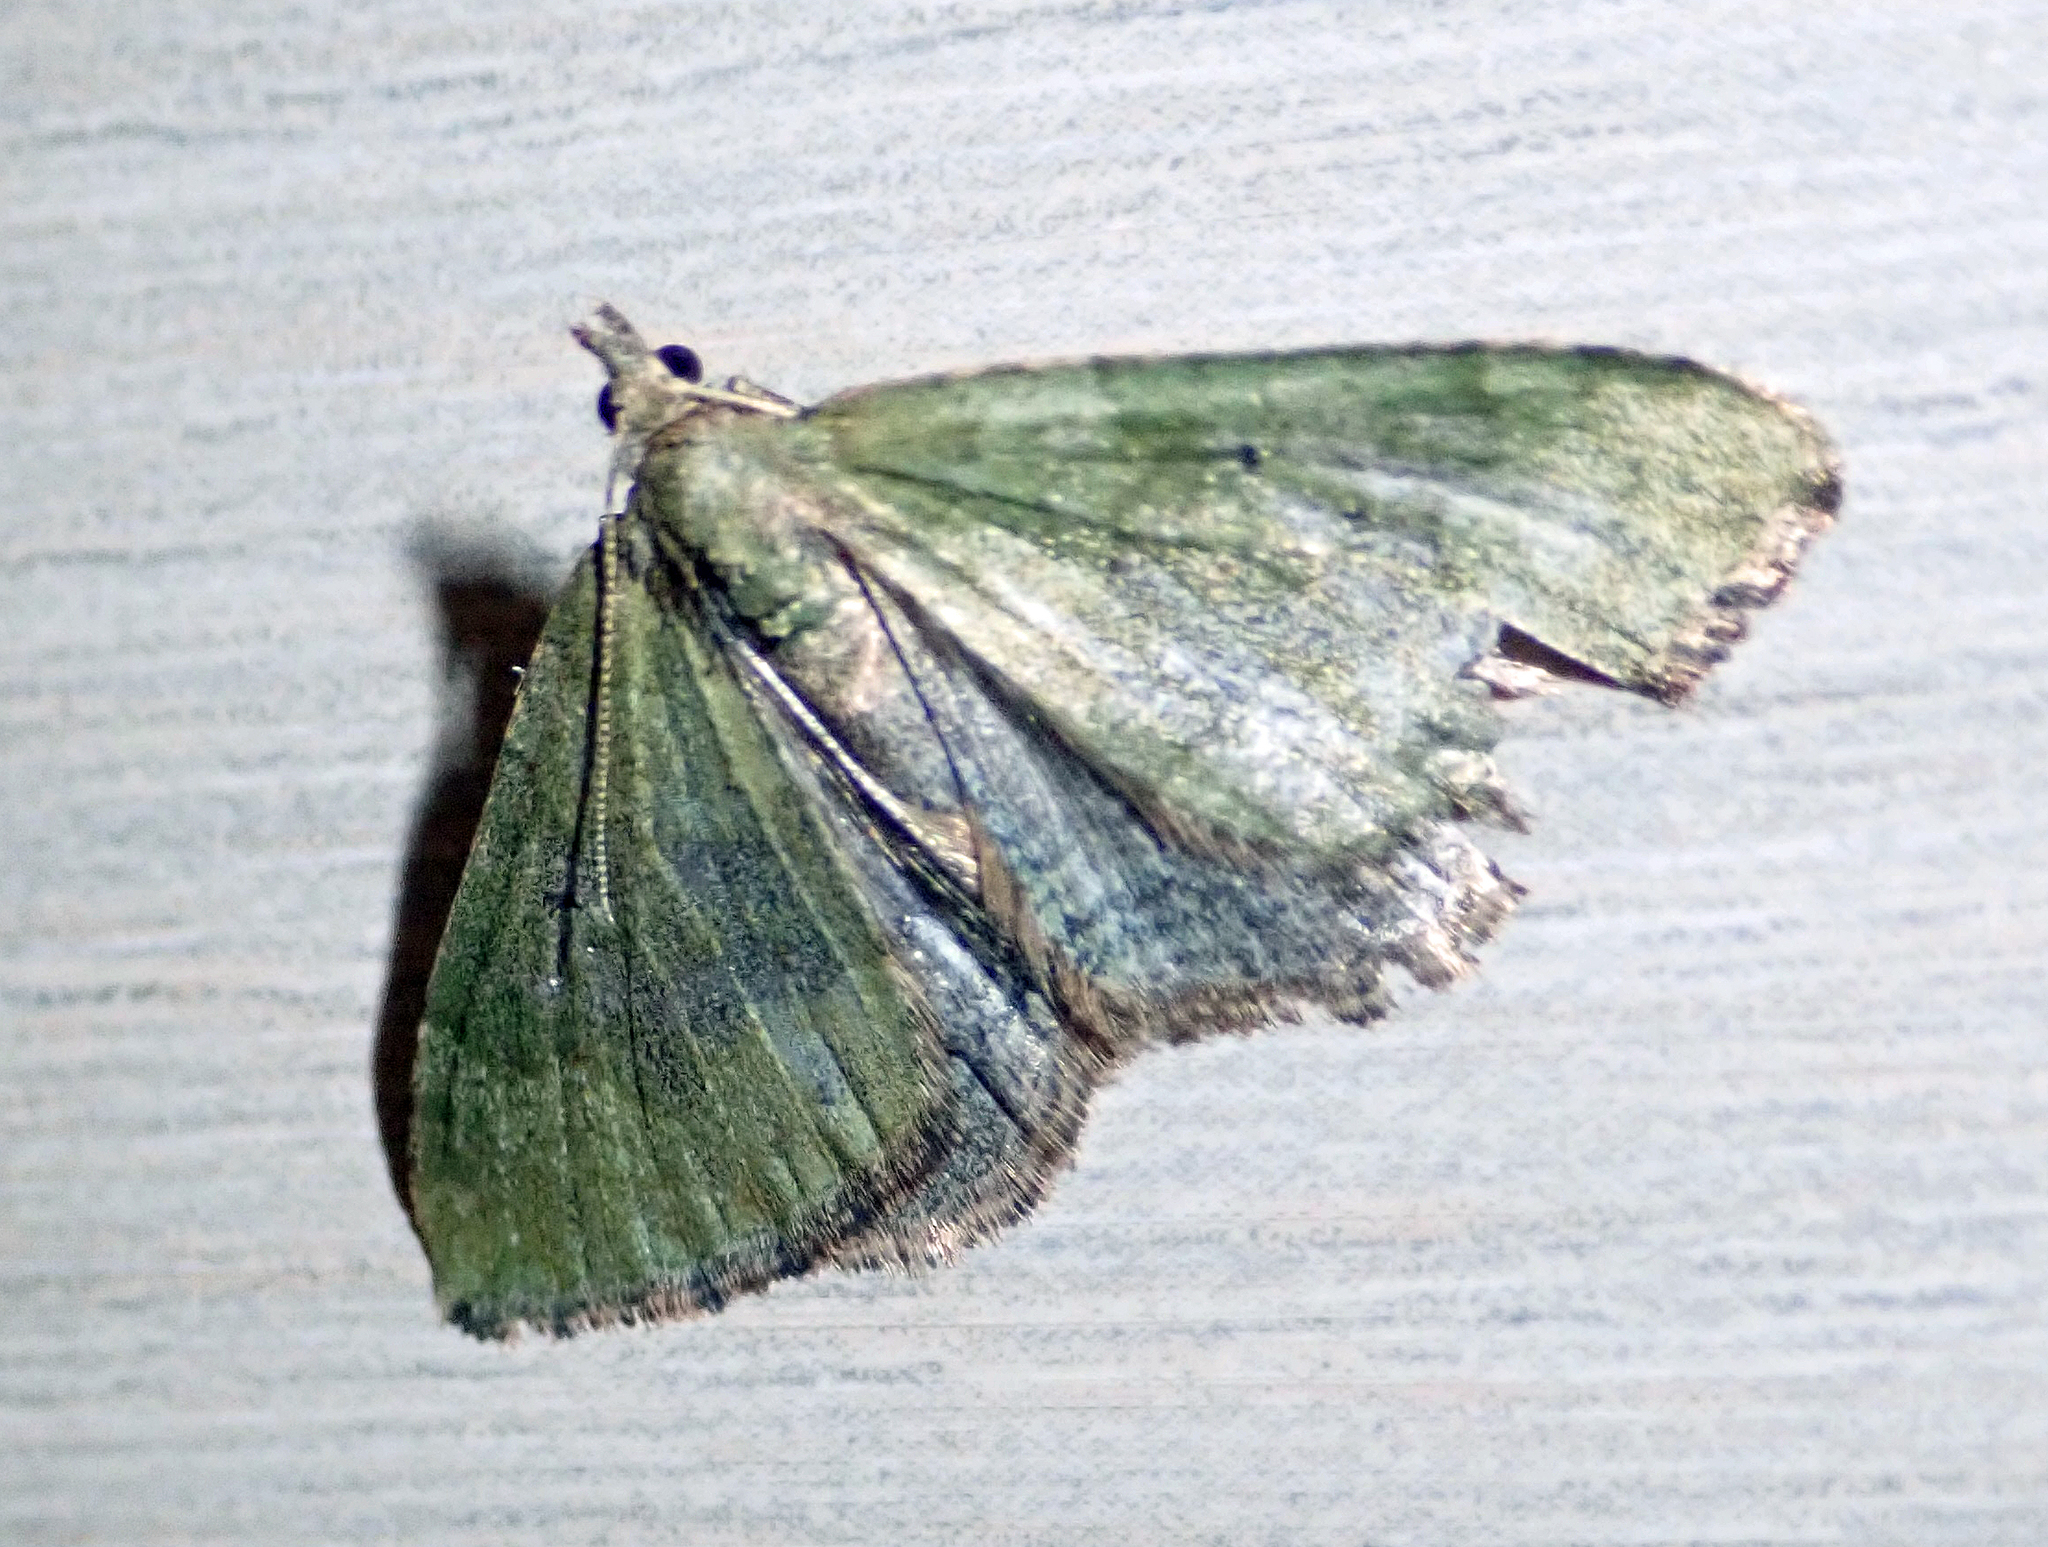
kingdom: Animalia
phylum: Arthropoda
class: Insecta
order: Lepidoptera
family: Geometridae
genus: Epyaxa
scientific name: Epyaxa rosearia
